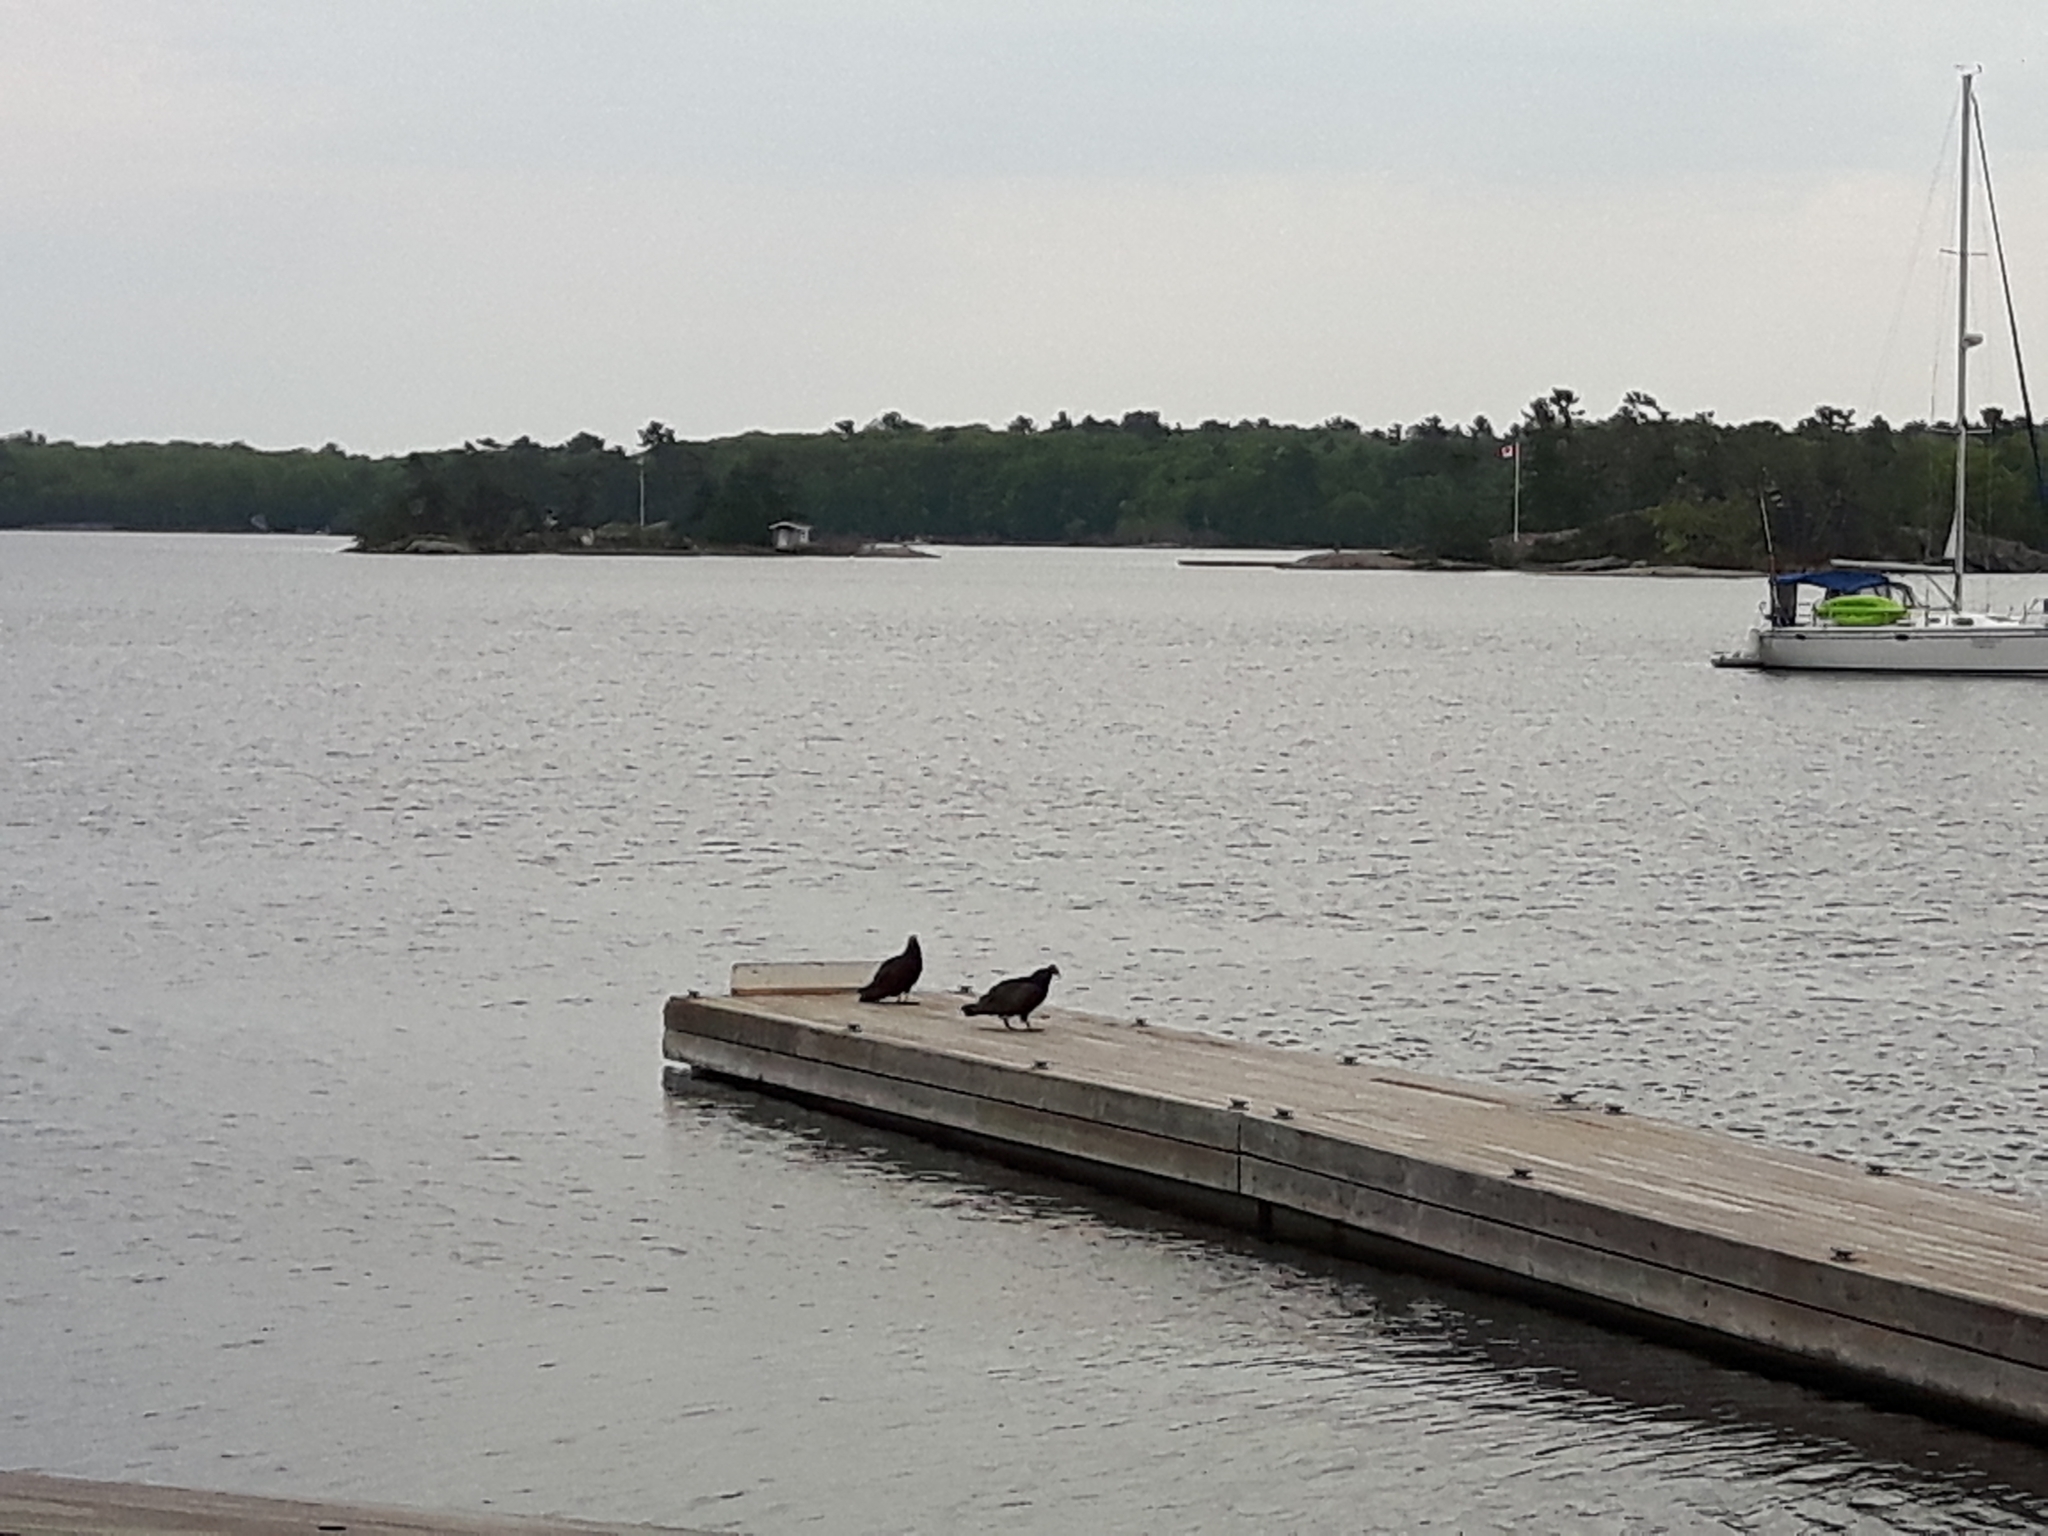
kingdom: Animalia
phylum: Chordata
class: Aves
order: Accipitriformes
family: Cathartidae
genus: Cathartes
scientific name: Cathartes aura
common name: Turkey vulture
